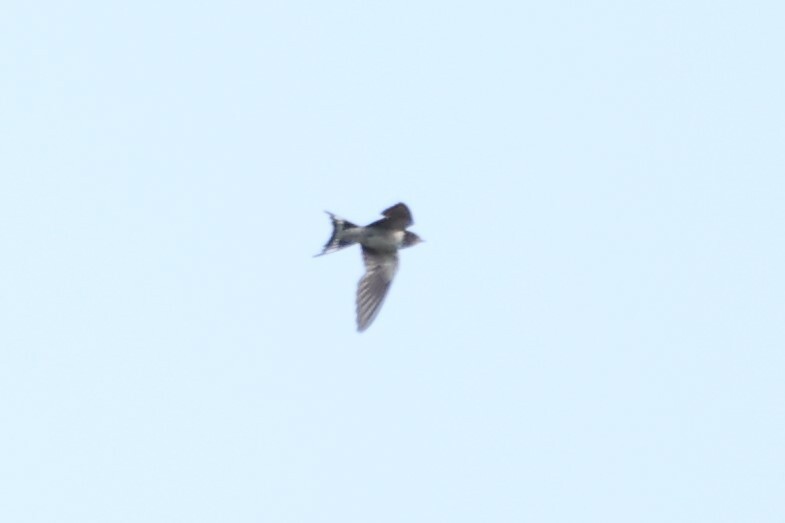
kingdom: Animalia
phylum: Chordata
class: Aves
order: Passeriformes
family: Hirundinidae
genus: Hirundo
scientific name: Hirundo rustica
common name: Barn swallow
